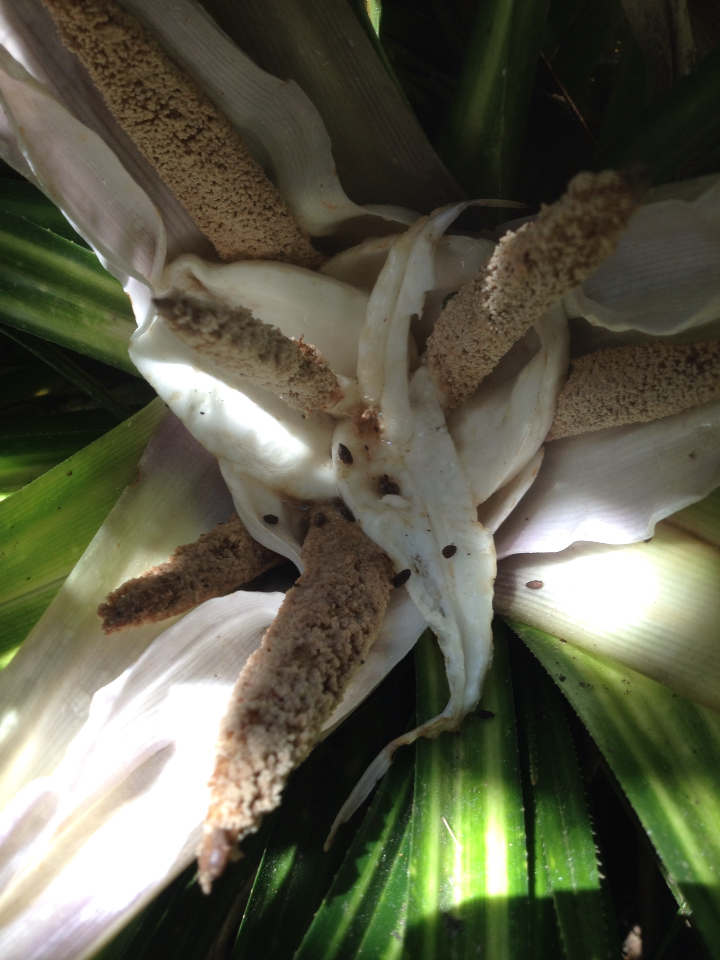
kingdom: Plantae
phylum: Tracheophyta
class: Liliopsida
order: Pandanales
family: Pandanaceae
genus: Freycinetia
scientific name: Freycinetia banksii
